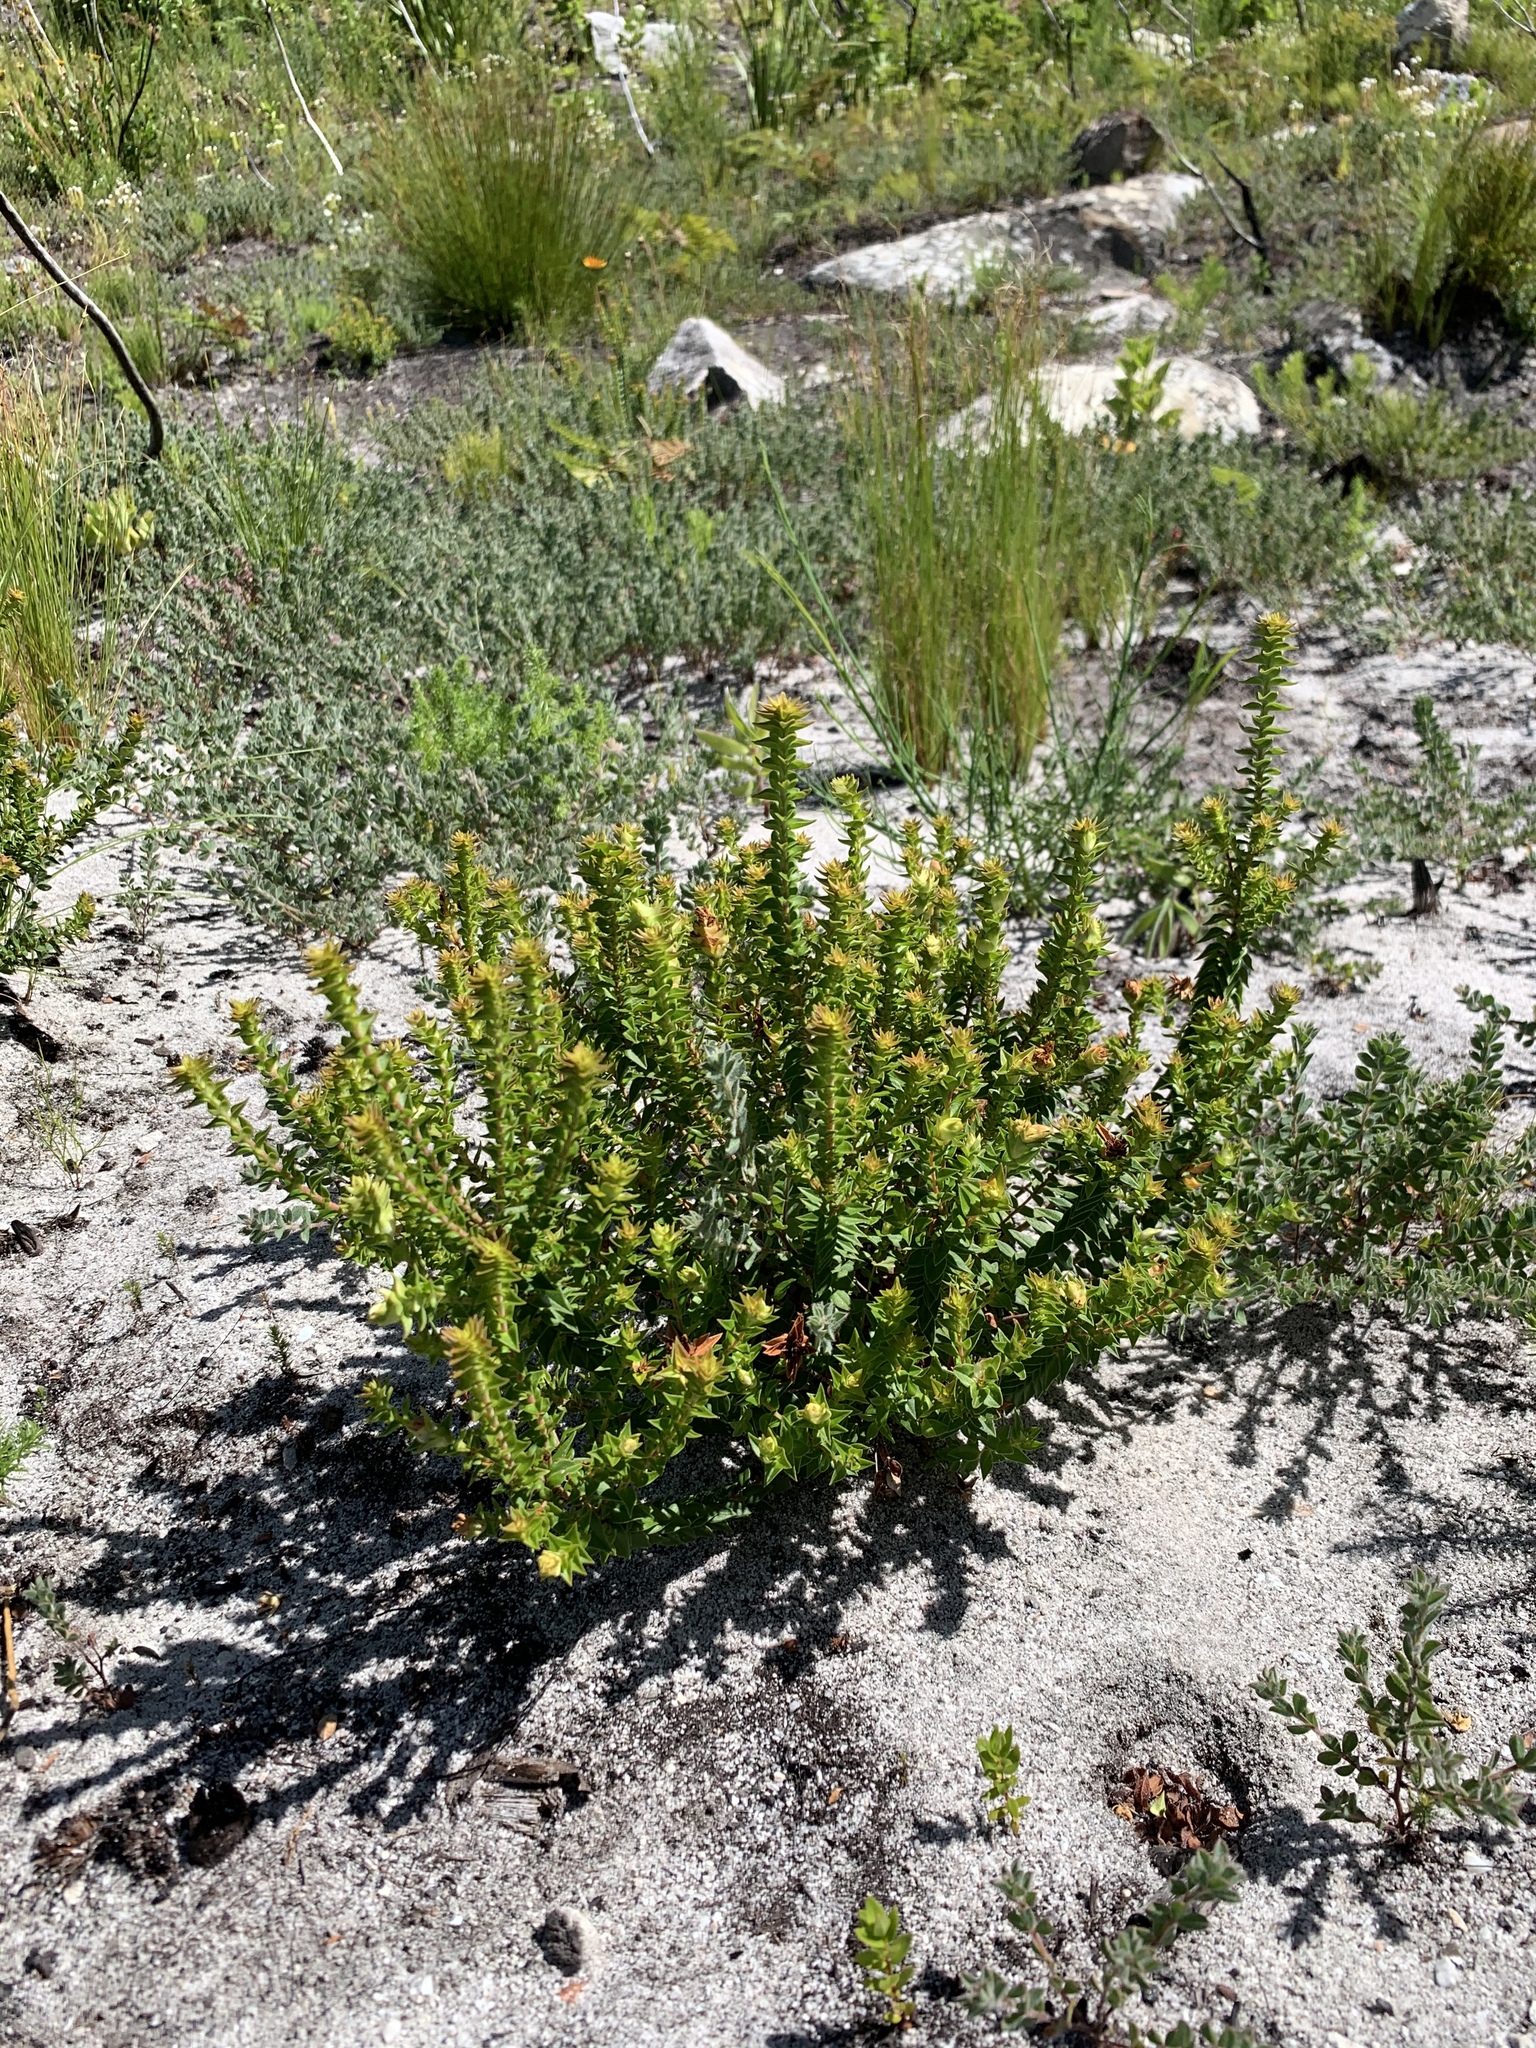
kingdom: Plantae
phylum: Tracheophyta
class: Magnoliopsida
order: Myrtales
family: Penaeaceae
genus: Penaea
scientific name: Penaea mucronata
